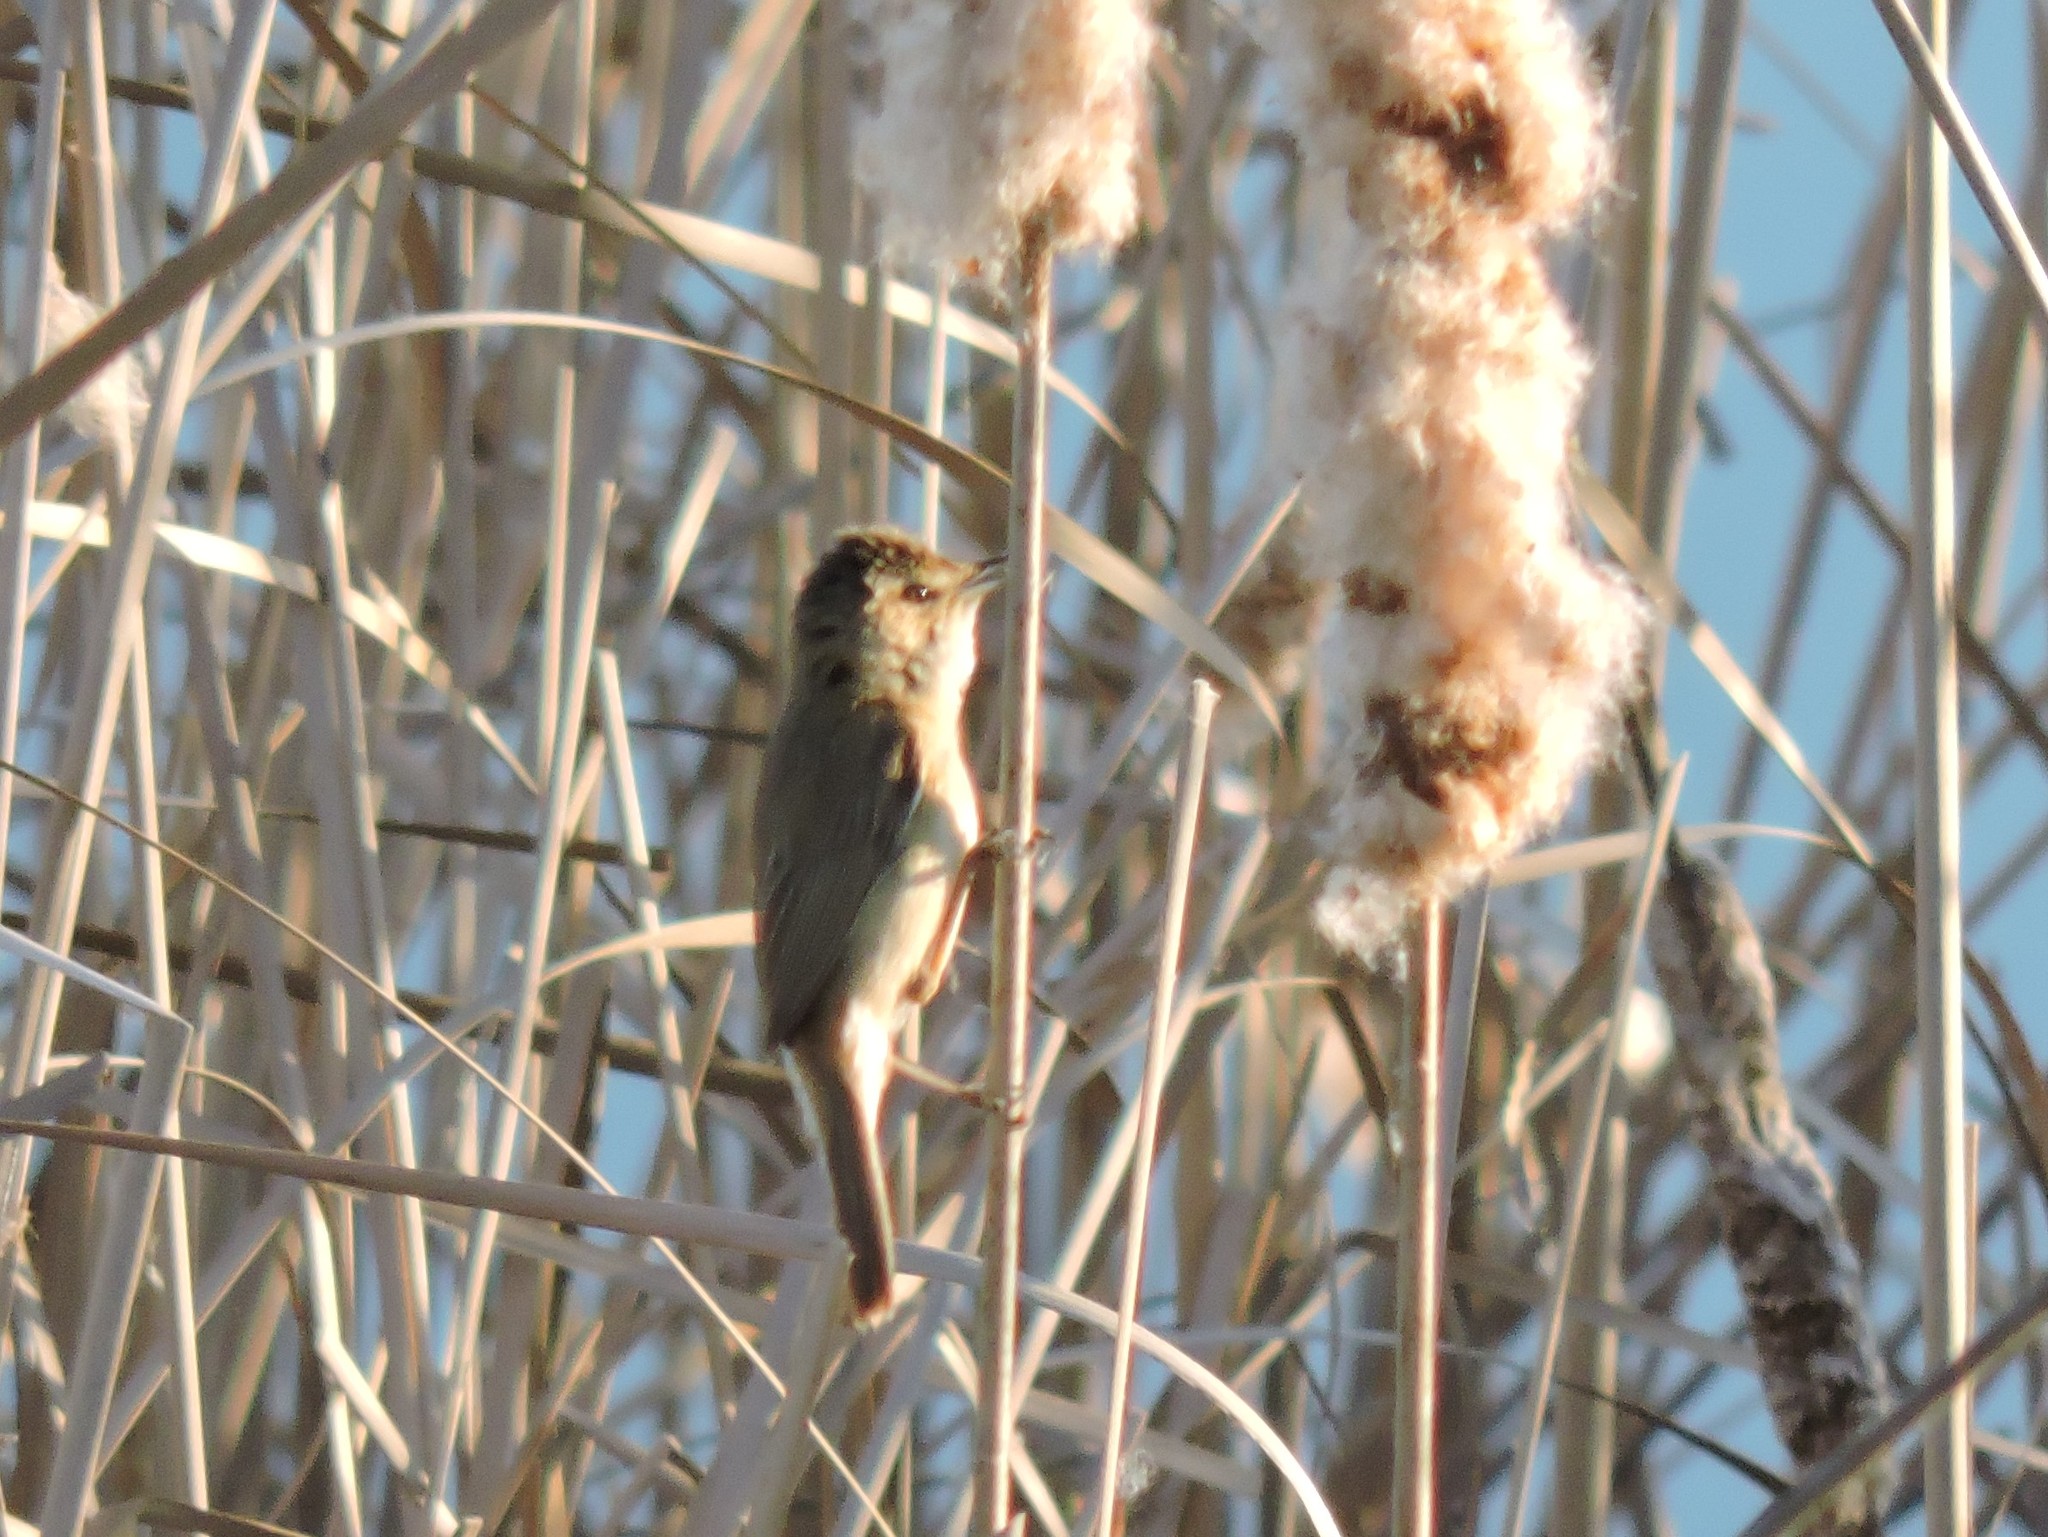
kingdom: Animalia
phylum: Chordata
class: Aves
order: Passeriformes
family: Acrocephalidae
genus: Acrocephalus
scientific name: Acrocephalus agricola
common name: Paddyfield warbler
